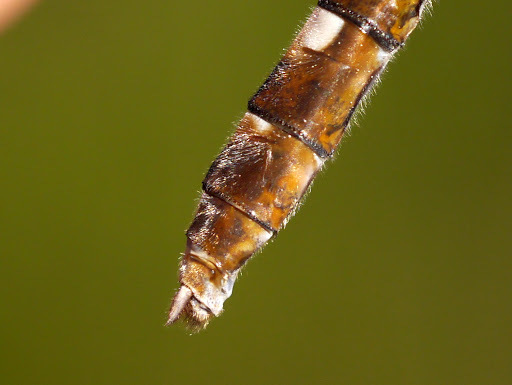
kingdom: Animalia
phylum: Arthropoda
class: Insecta
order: Odonata
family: Macromiidae
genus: Didymops
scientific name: Didymops transversa
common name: Stream cruiser
